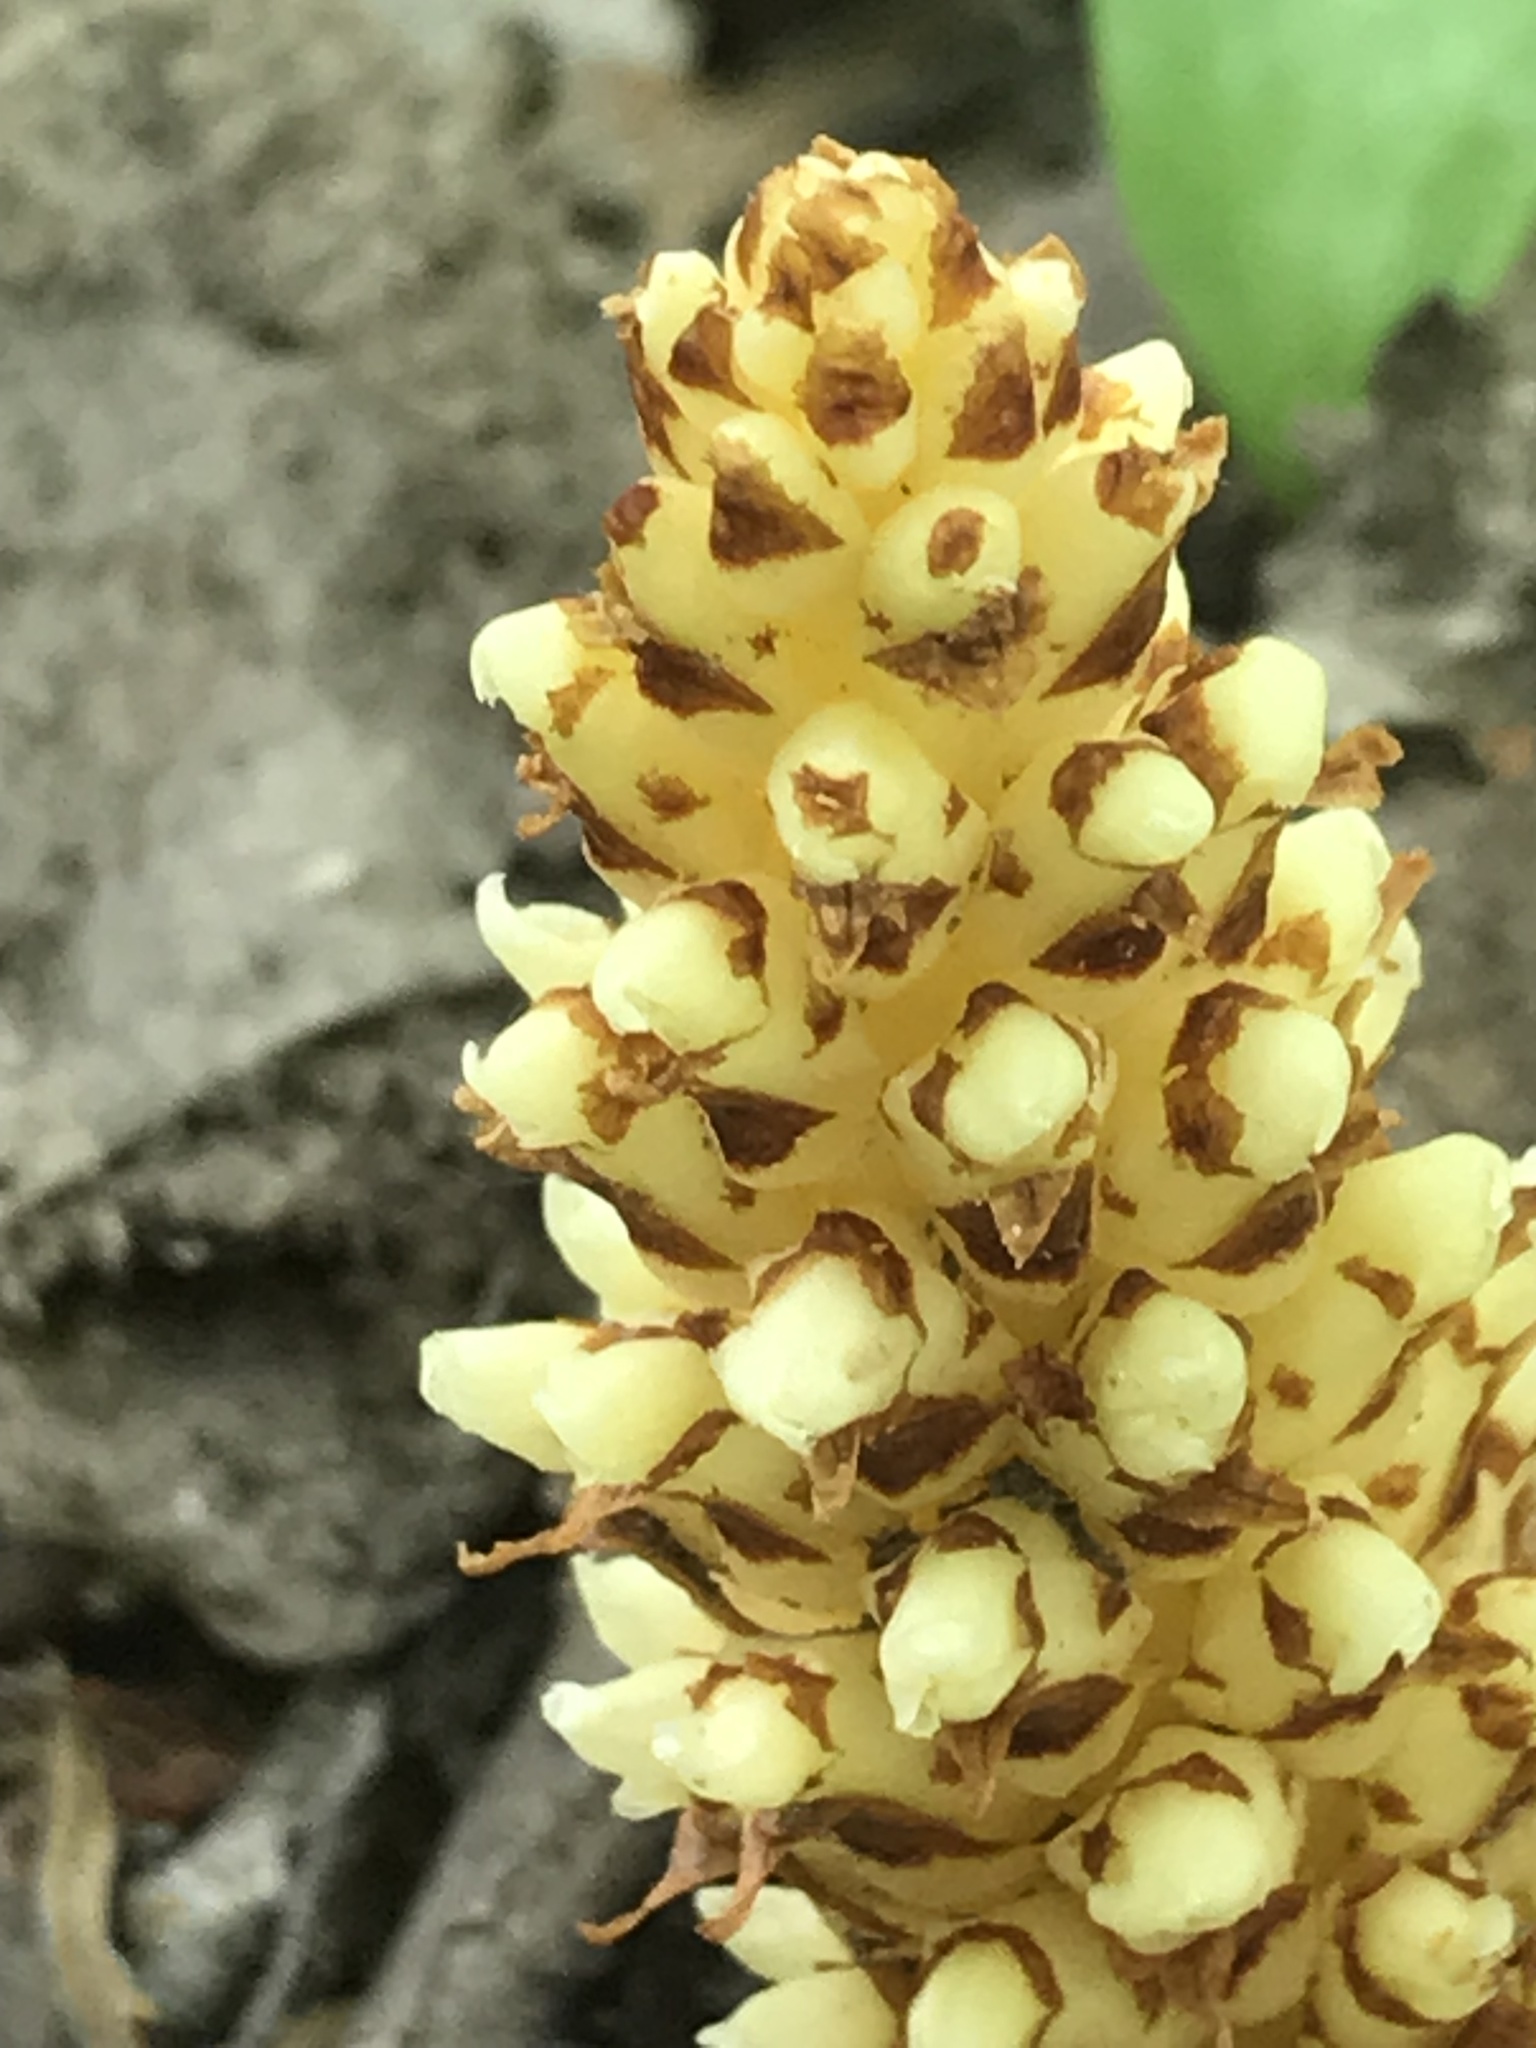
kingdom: Plantae
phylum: Tracheophyta
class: Magnoliopsida
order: Lamiales
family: Orobanchaceae
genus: Conopholis
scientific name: Conopholis americana
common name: American cancer-root
